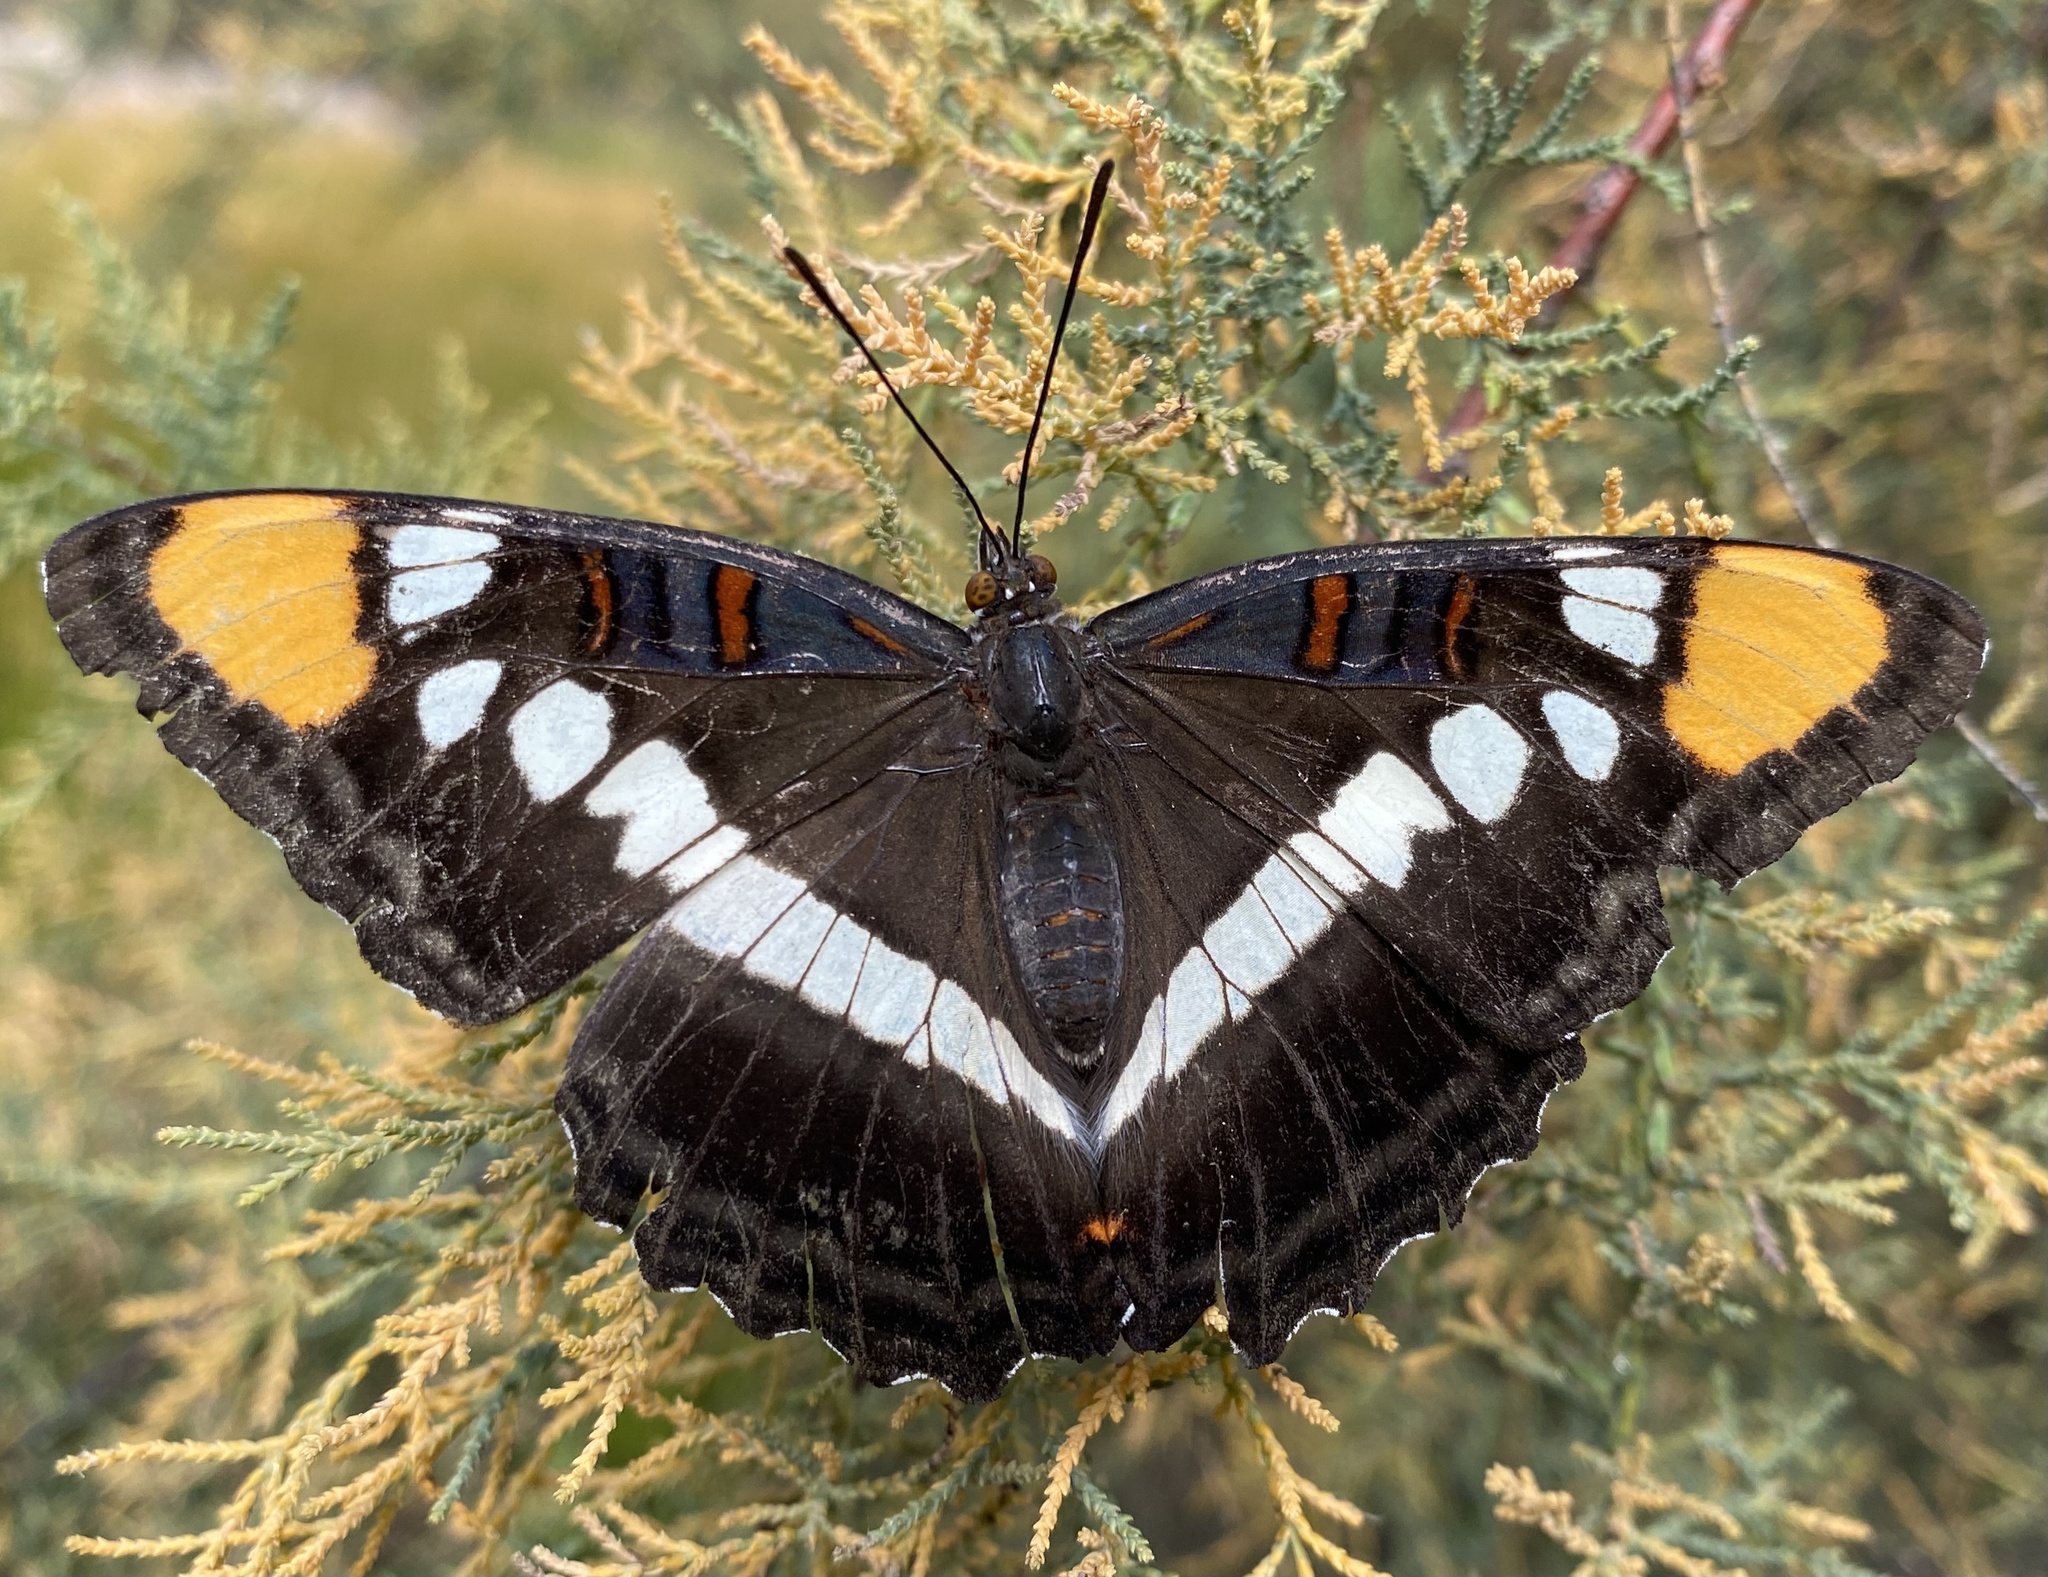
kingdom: Animalia
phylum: Arthropoda
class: Insecta
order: Lepidoptera
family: Nymphalidae
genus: Limenitis
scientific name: Limenitis bredowii
